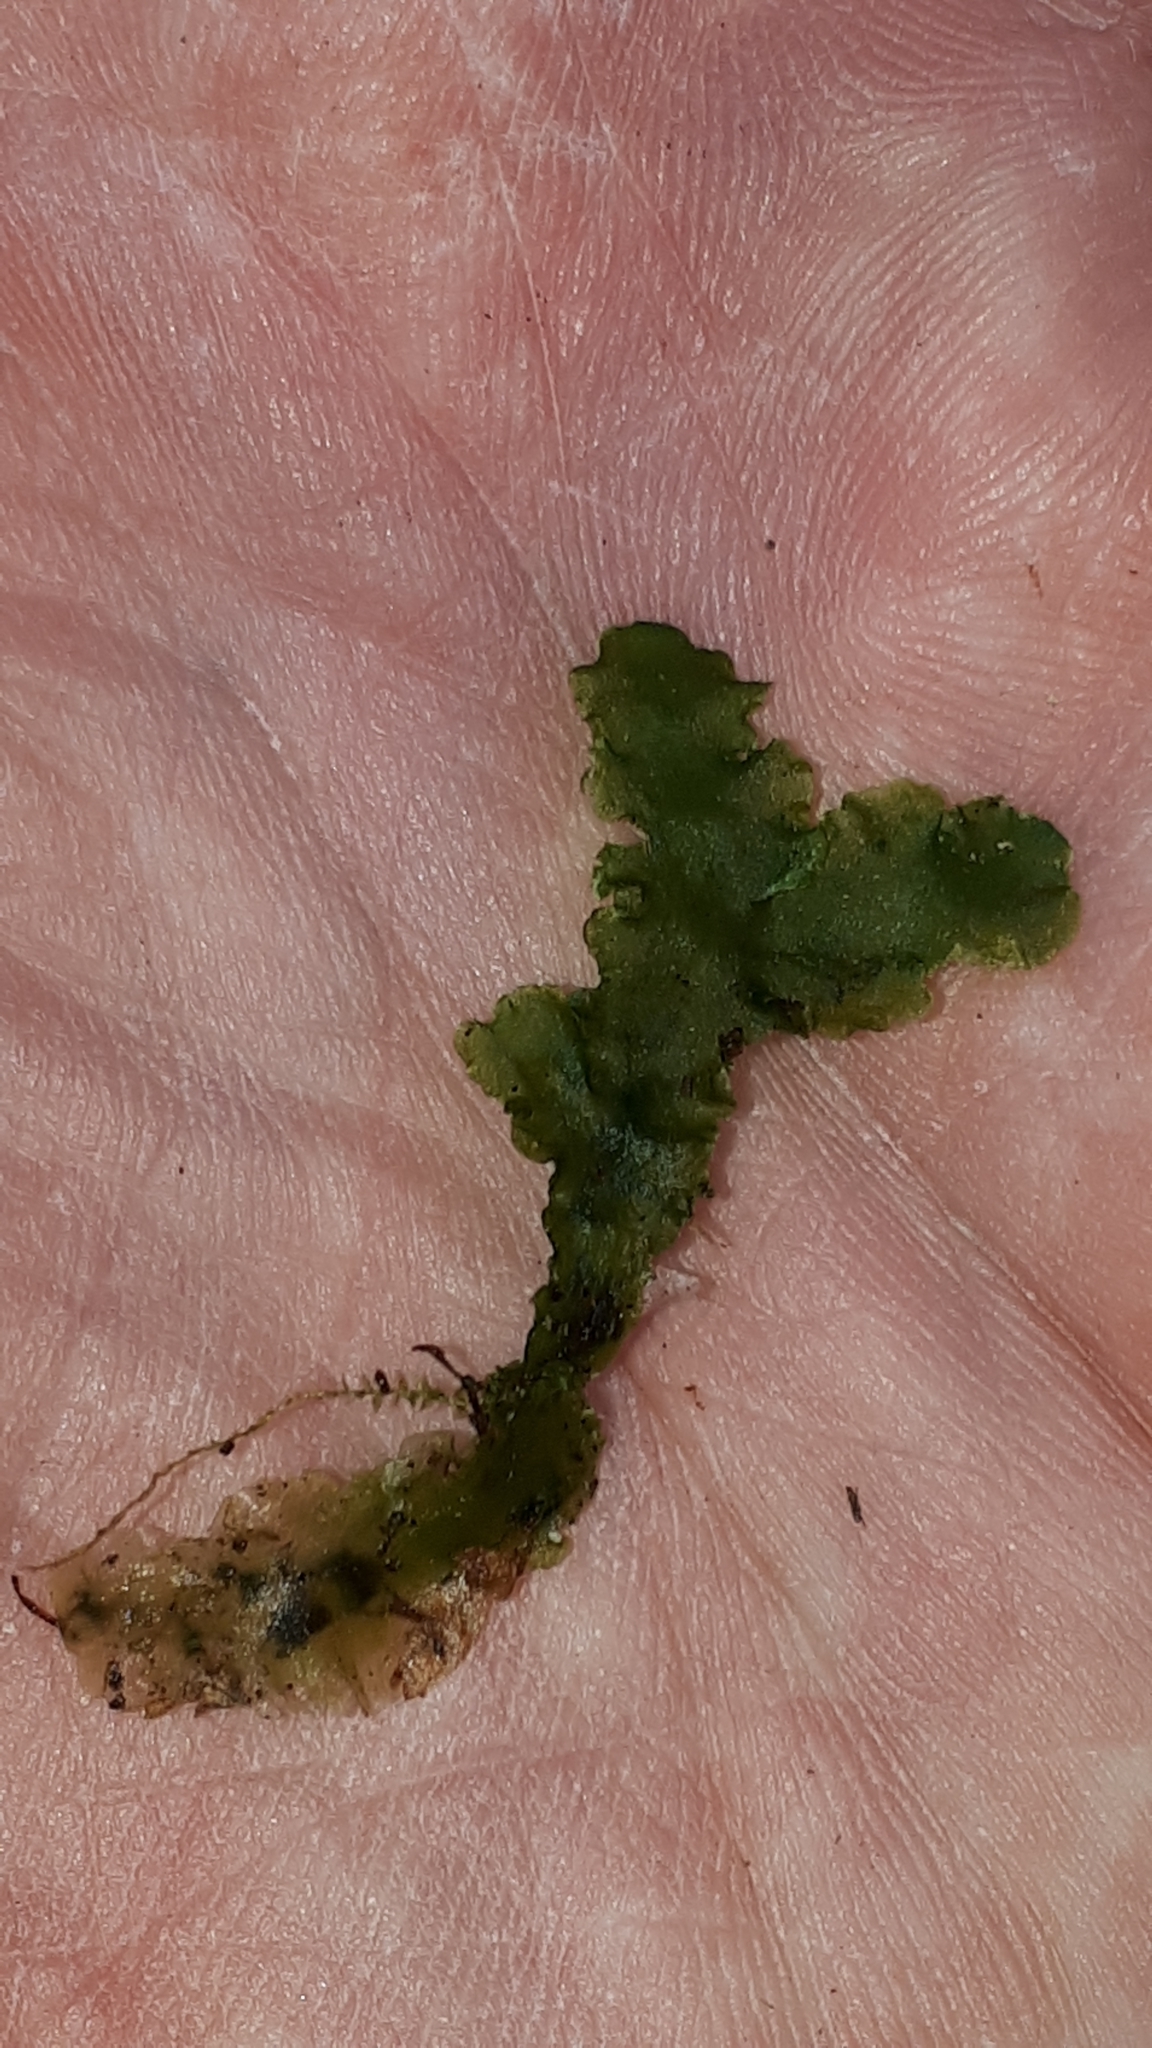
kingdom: Plantae
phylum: Marchantiophyta
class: Jungermanniopsida
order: Metzgeriales
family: Aneuraceae
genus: Aneura
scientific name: Aneura pinguis
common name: Common greasewort
